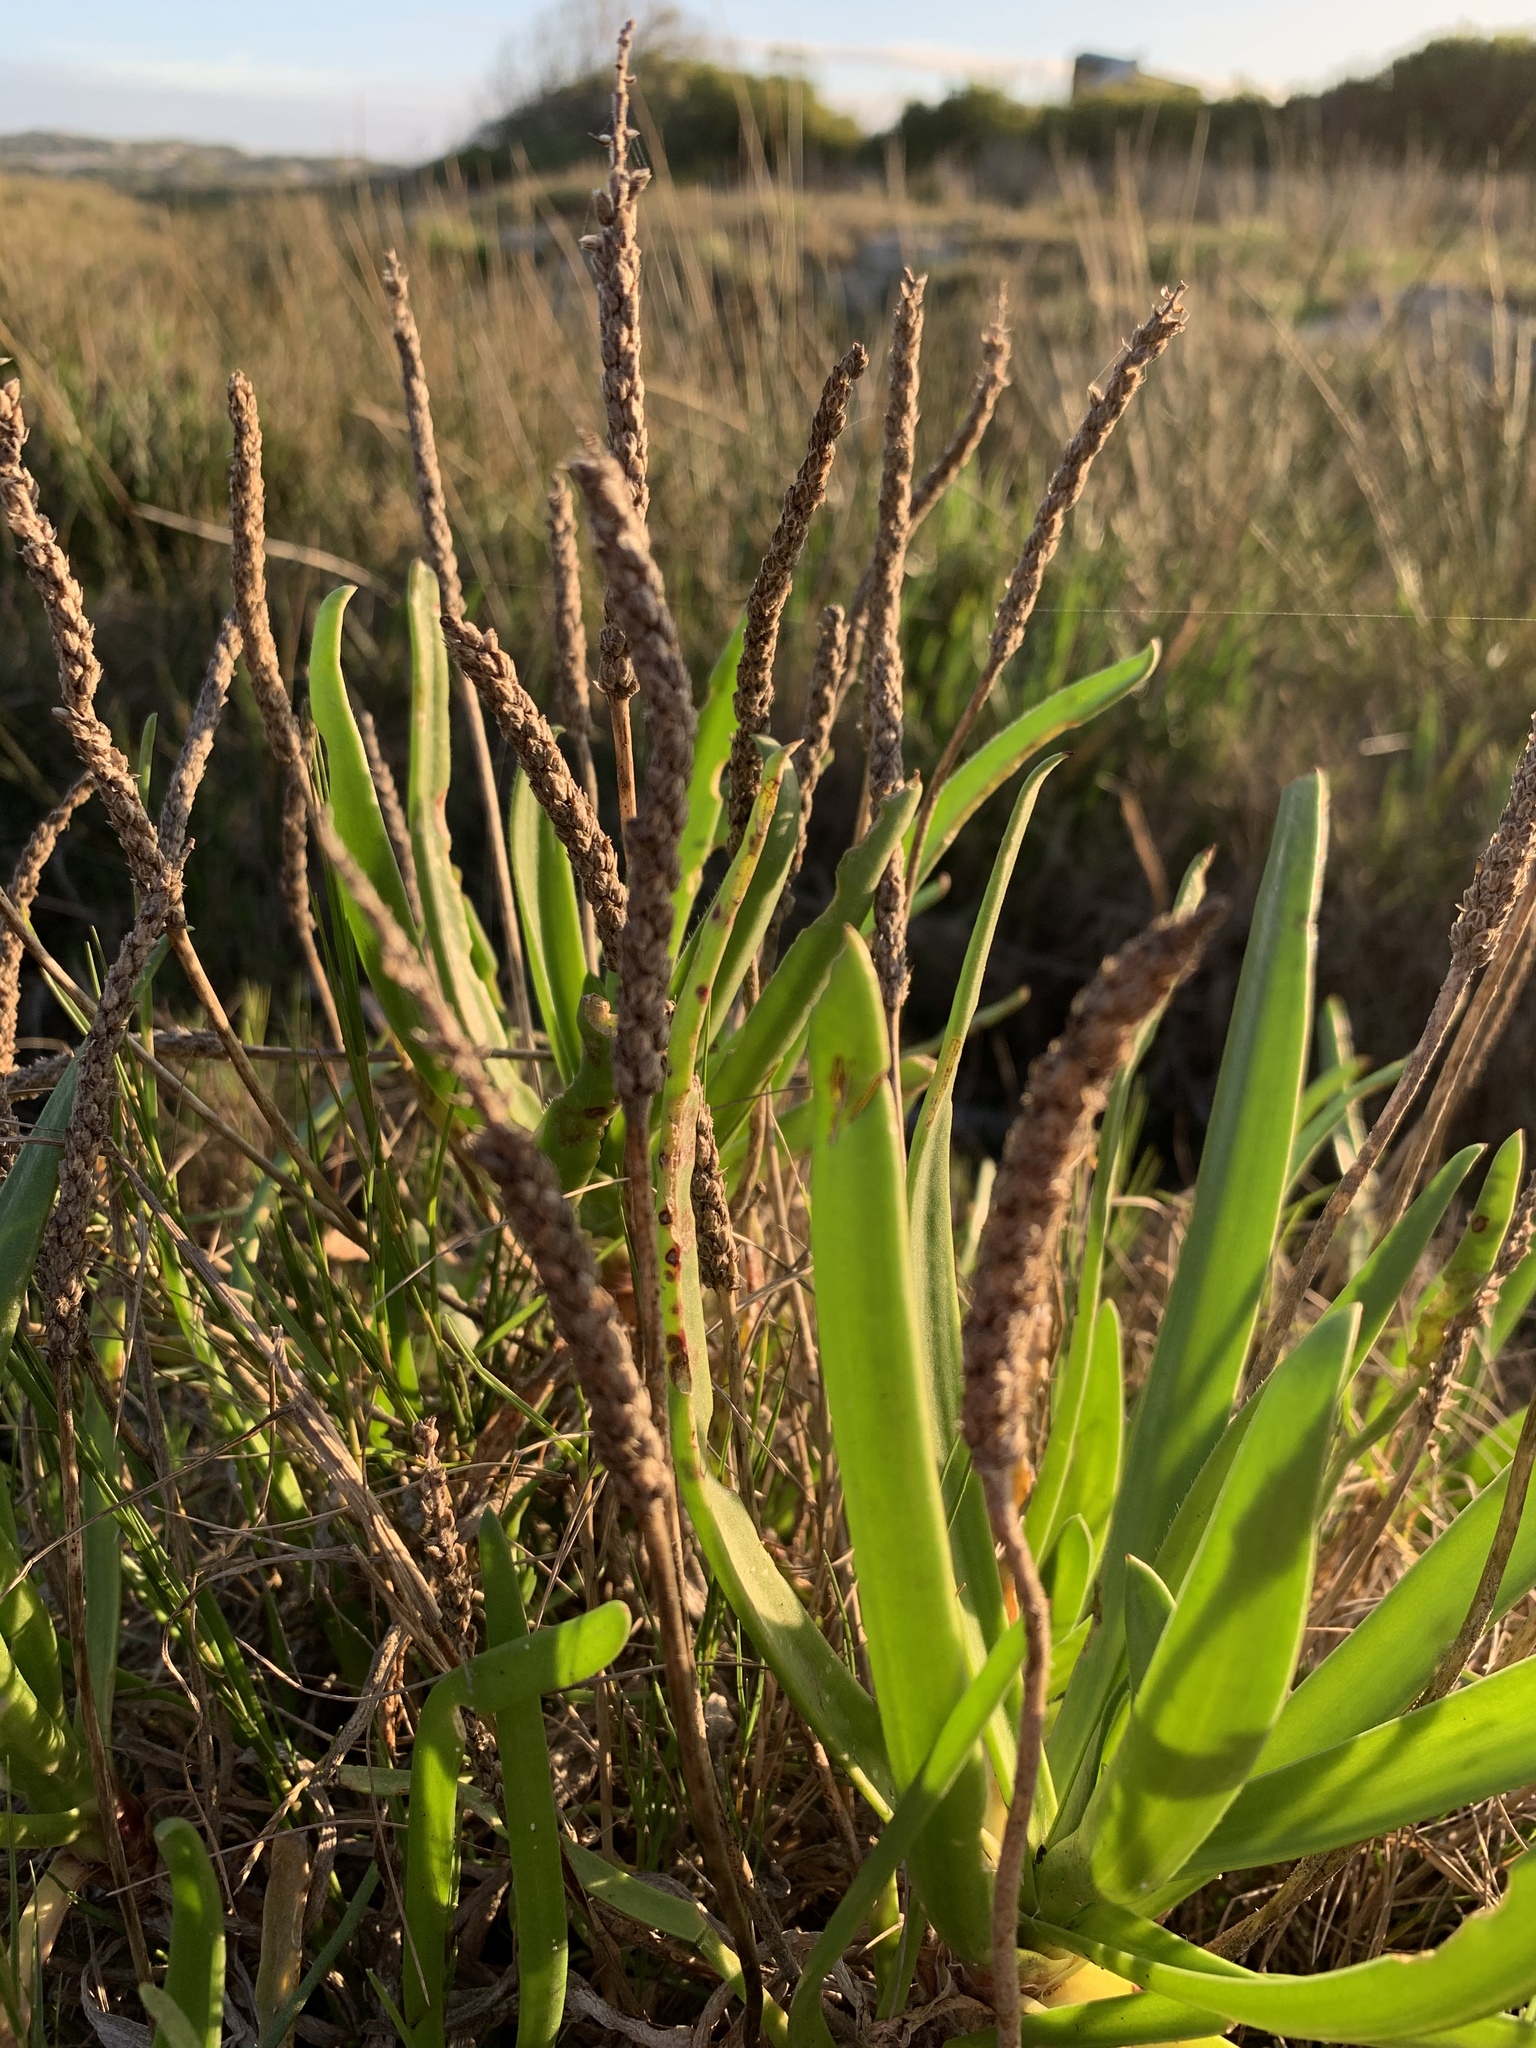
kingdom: Plantae
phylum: Tracheophyta
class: Magnoliopsida
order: Lamiales
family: Plantaginaceae
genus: Plantago
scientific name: Plantago carnosa
